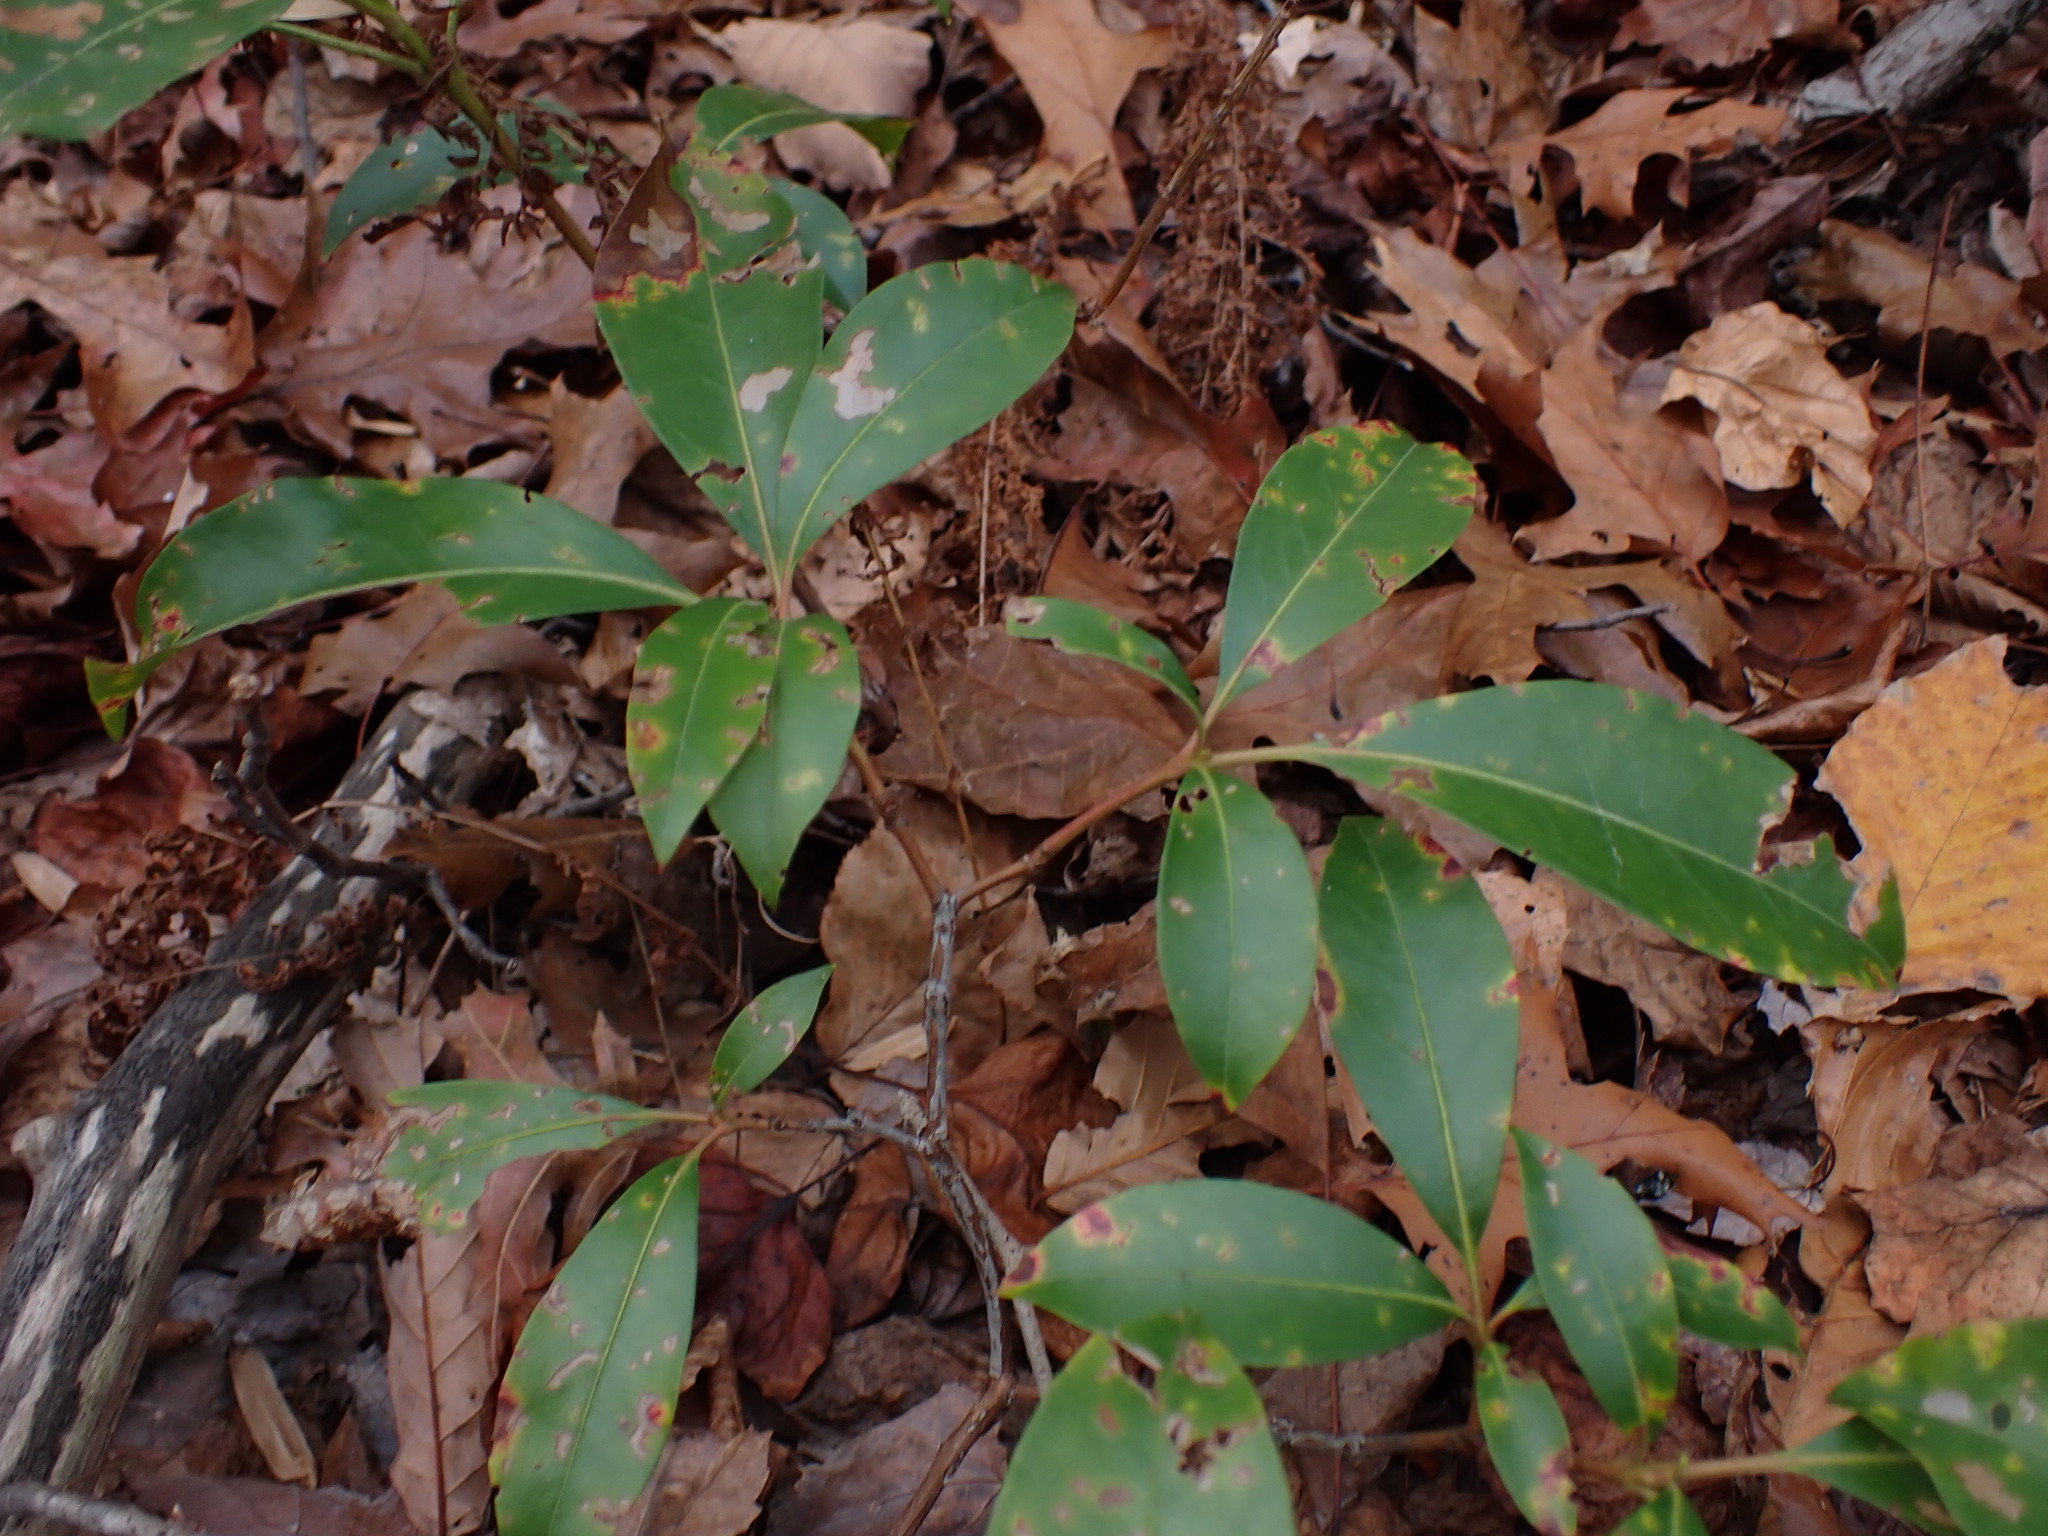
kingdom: Plantae
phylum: Tracheophyta
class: Magnoliopsida
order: Ericales
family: Ericaceae
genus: Kalmia
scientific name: Kalmia latifolia
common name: Mountain-laurel
